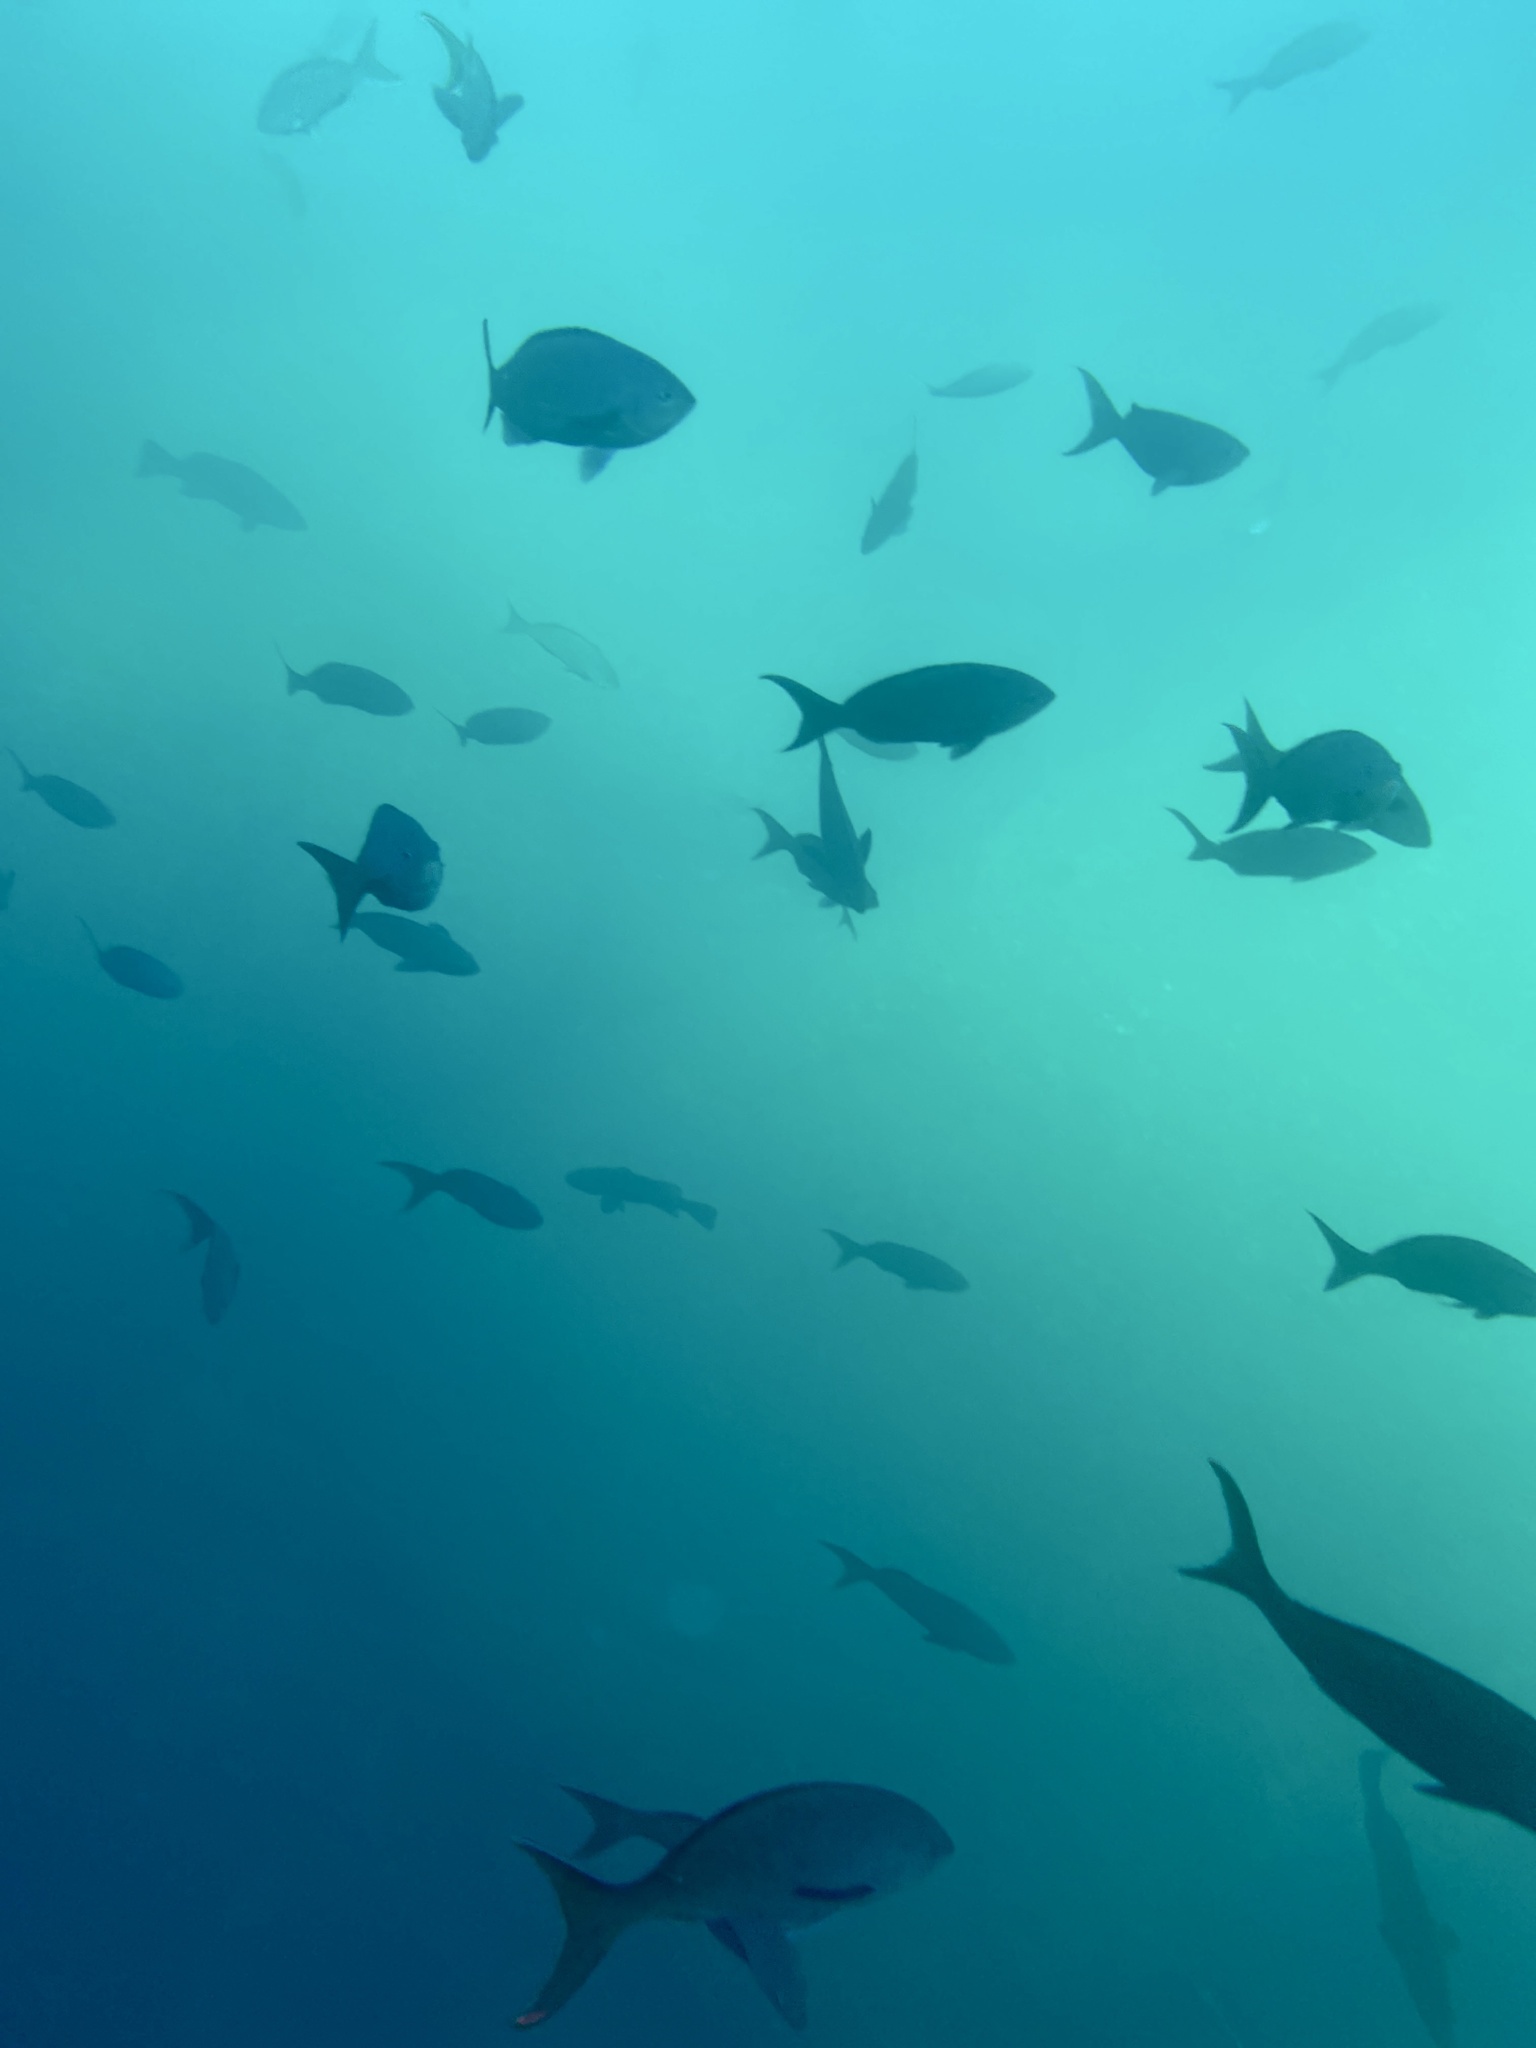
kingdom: Animalia
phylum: Chordata
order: Perciformes
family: Serranidae
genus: Paranthias
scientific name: Paranthias colonus
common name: Pacific creole-fish
